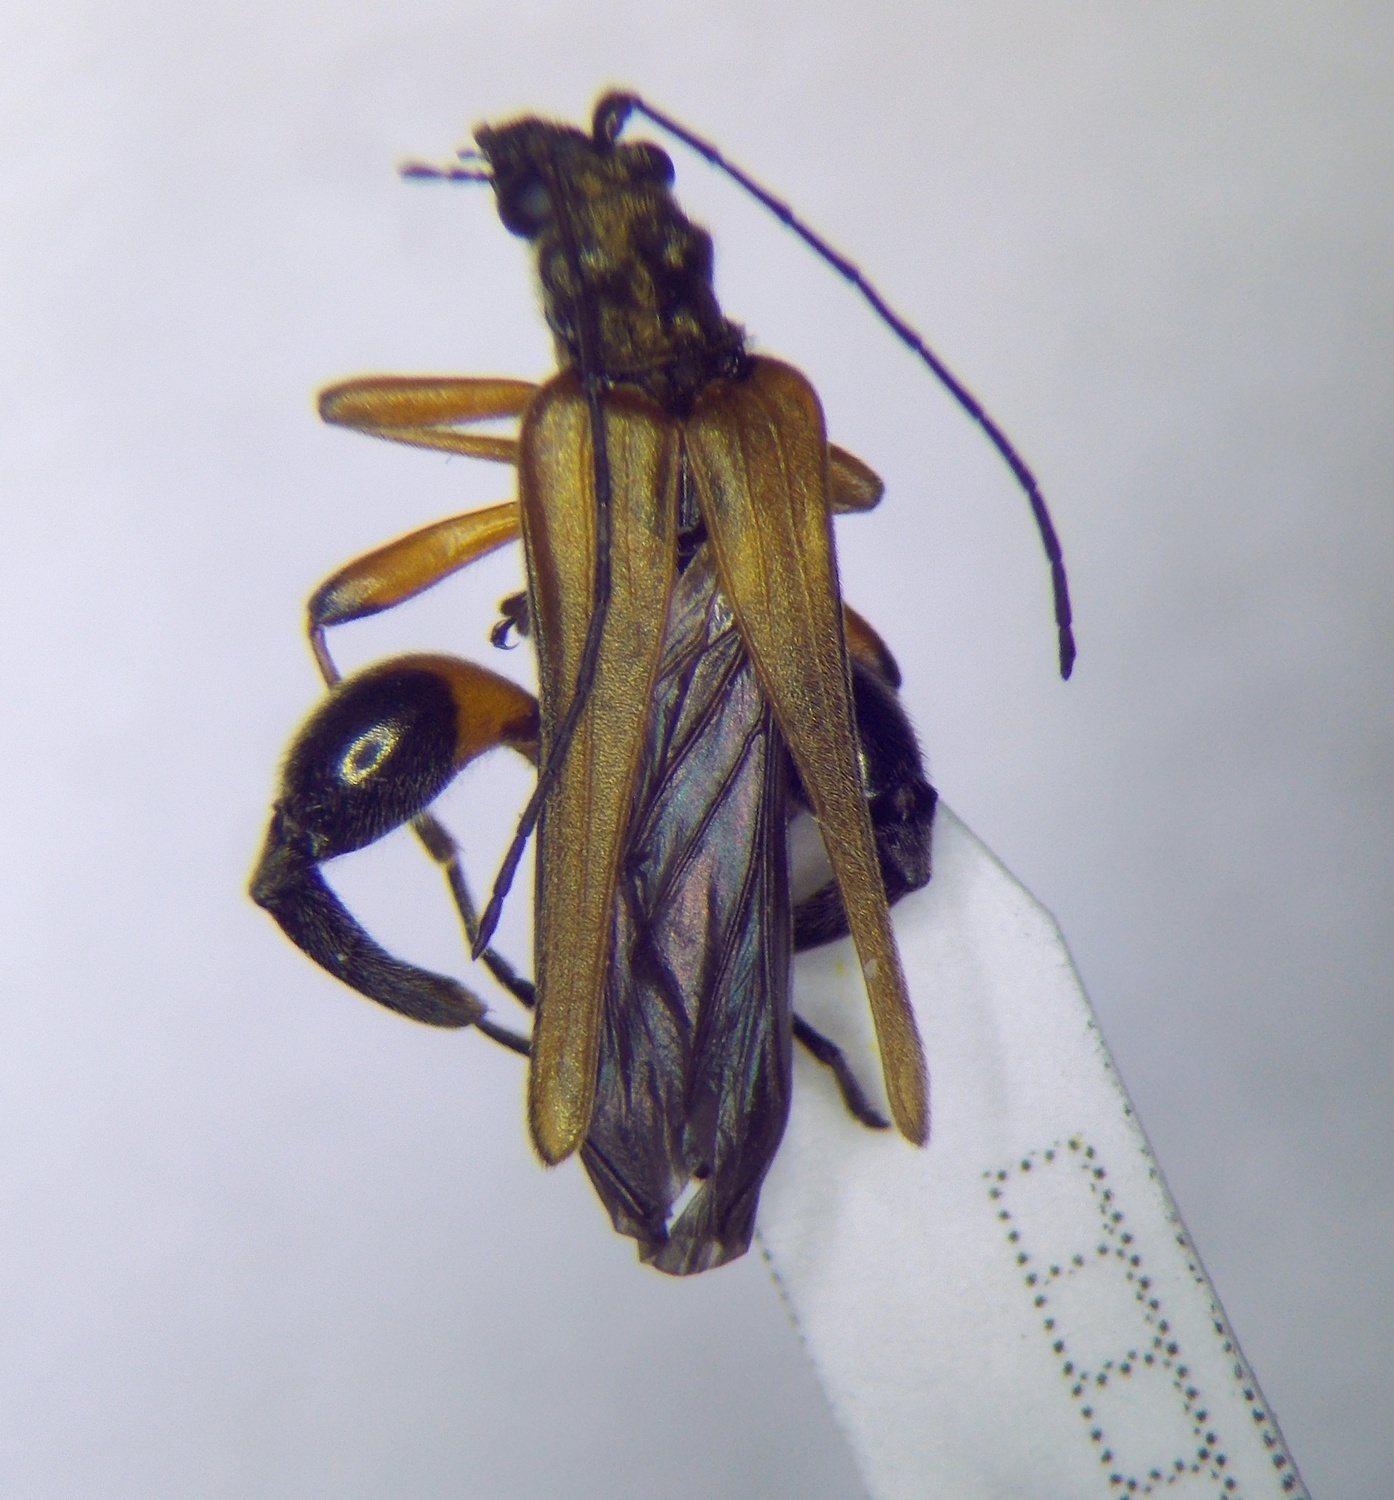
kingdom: Animalia
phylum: Arthropoda
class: Insecta
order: Coleoptera
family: Oedemeridae
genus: Oedemera
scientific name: Oedemera podagrariae
